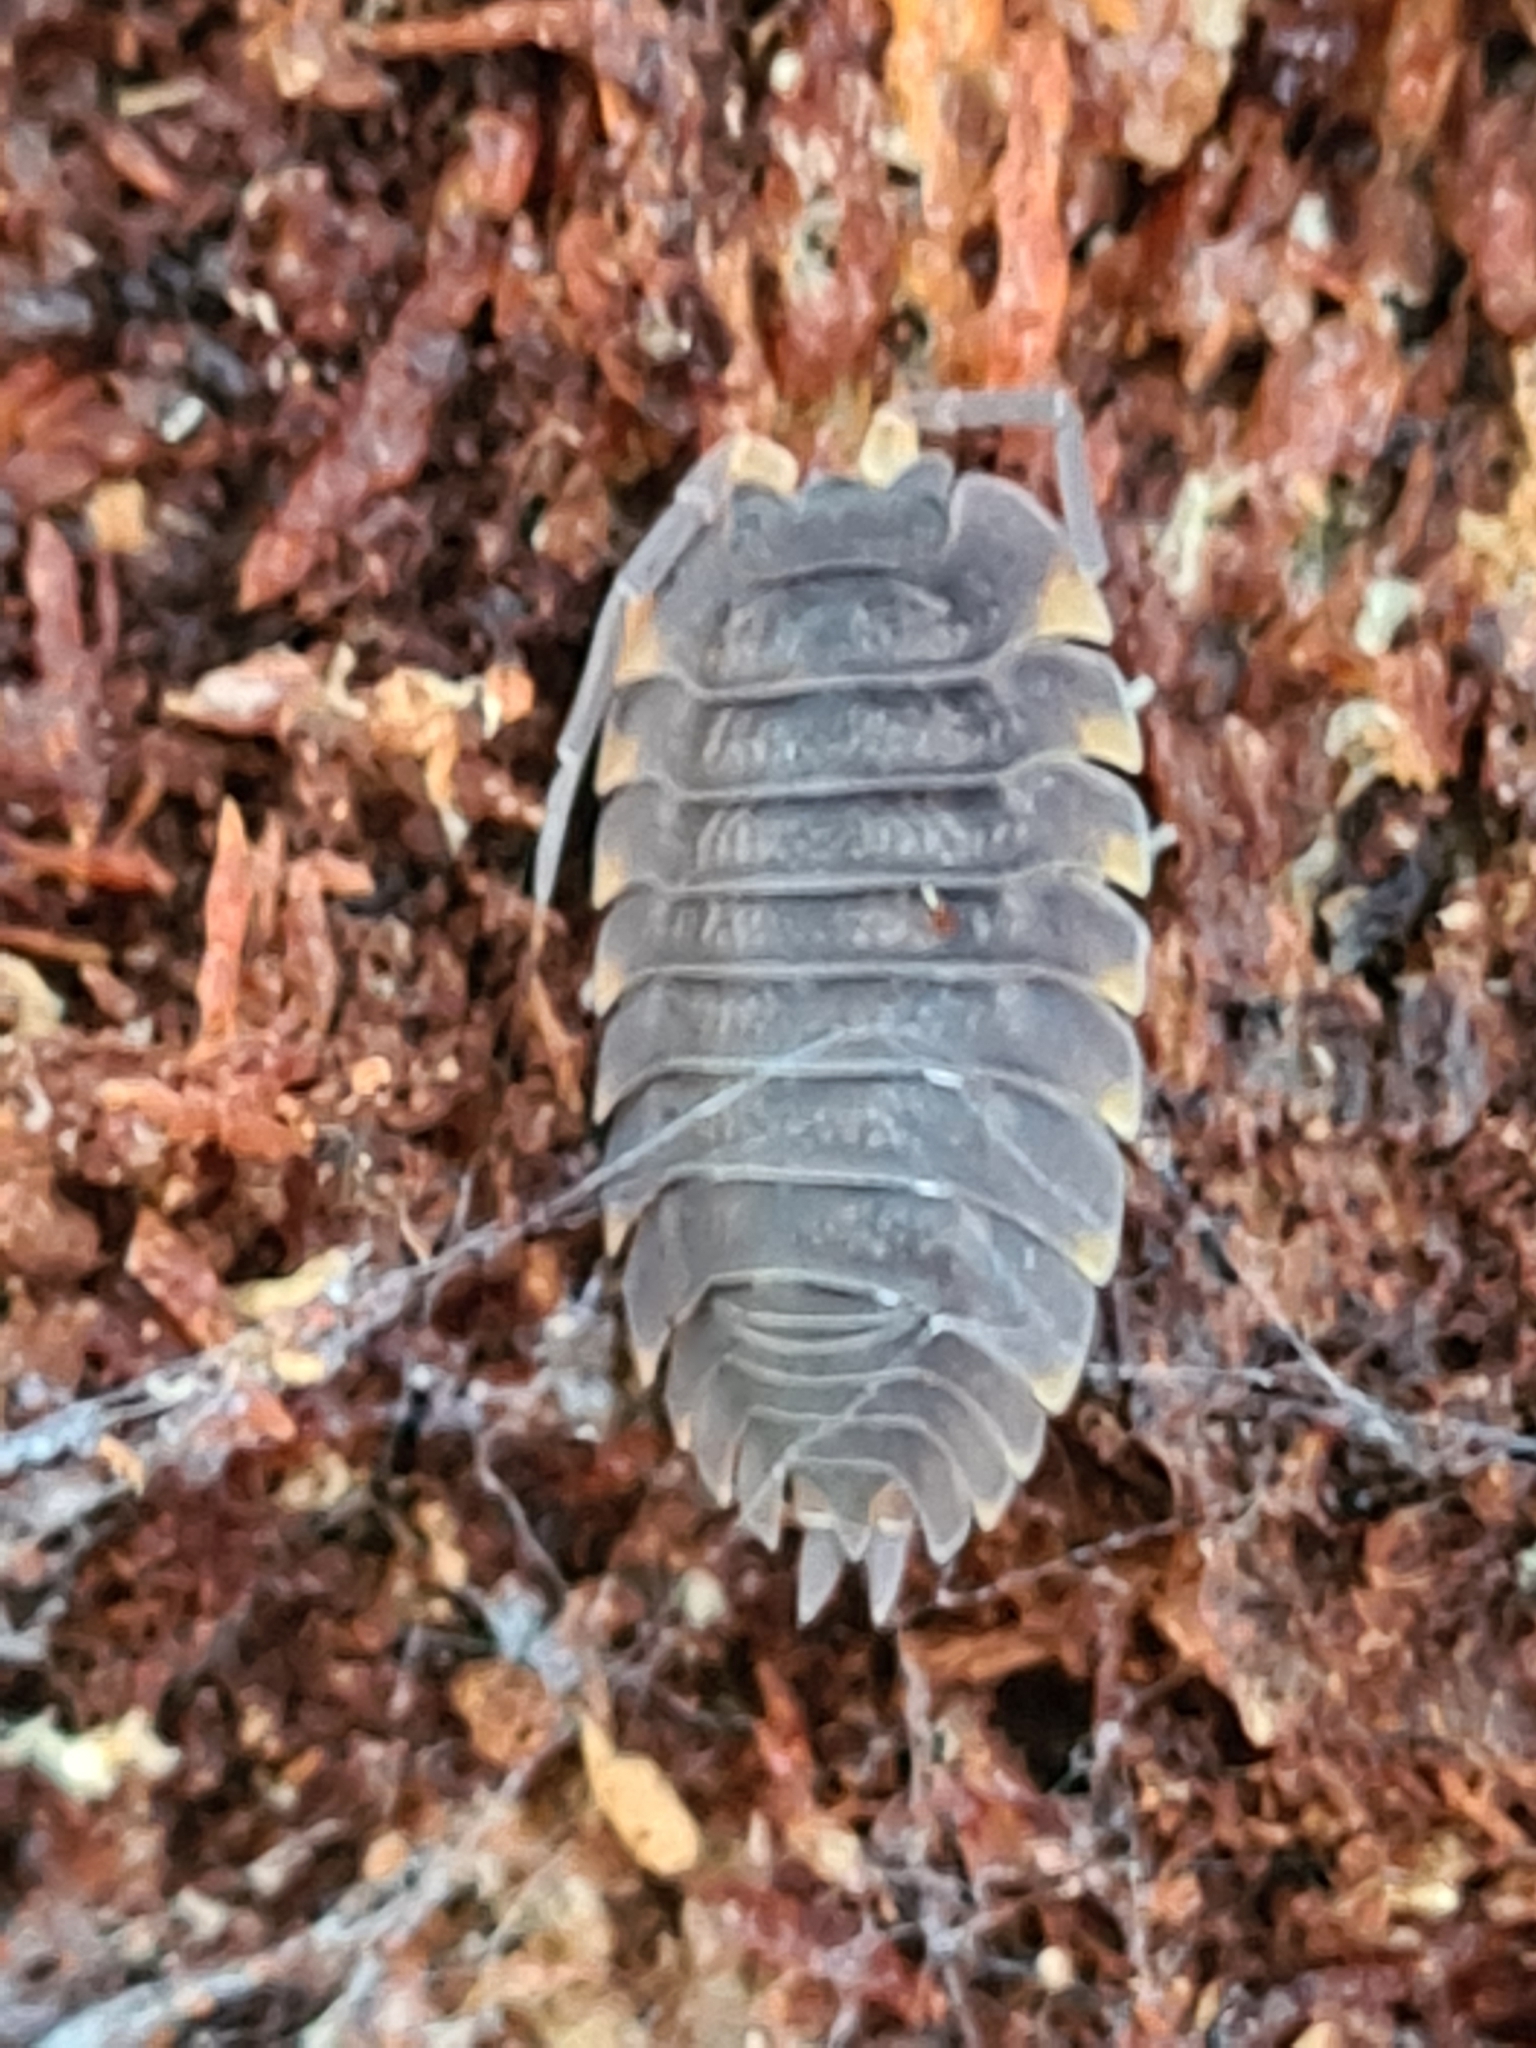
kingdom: Animalia
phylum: Arthropoda
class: Malacostraca
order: Isopoda
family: Trachelipodidae
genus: Trachelipus
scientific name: Trachelipus ratzeburgii
